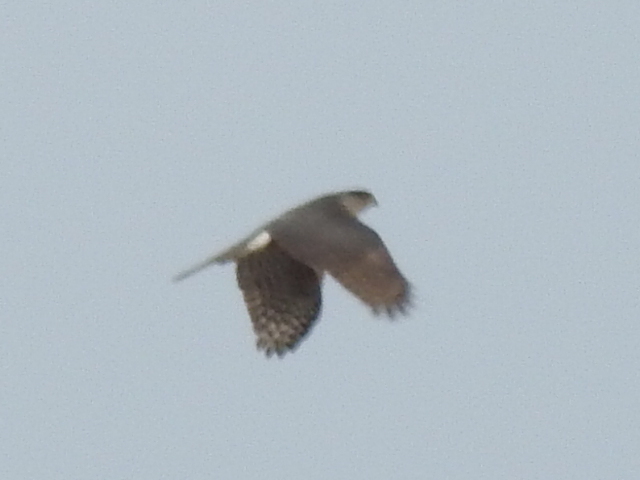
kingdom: Animalia
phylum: Chordata
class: Aves
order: Accipitriformes
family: Accipitridae
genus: Accipiter
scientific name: Accipiter cooperii
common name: Cooper's hawk
